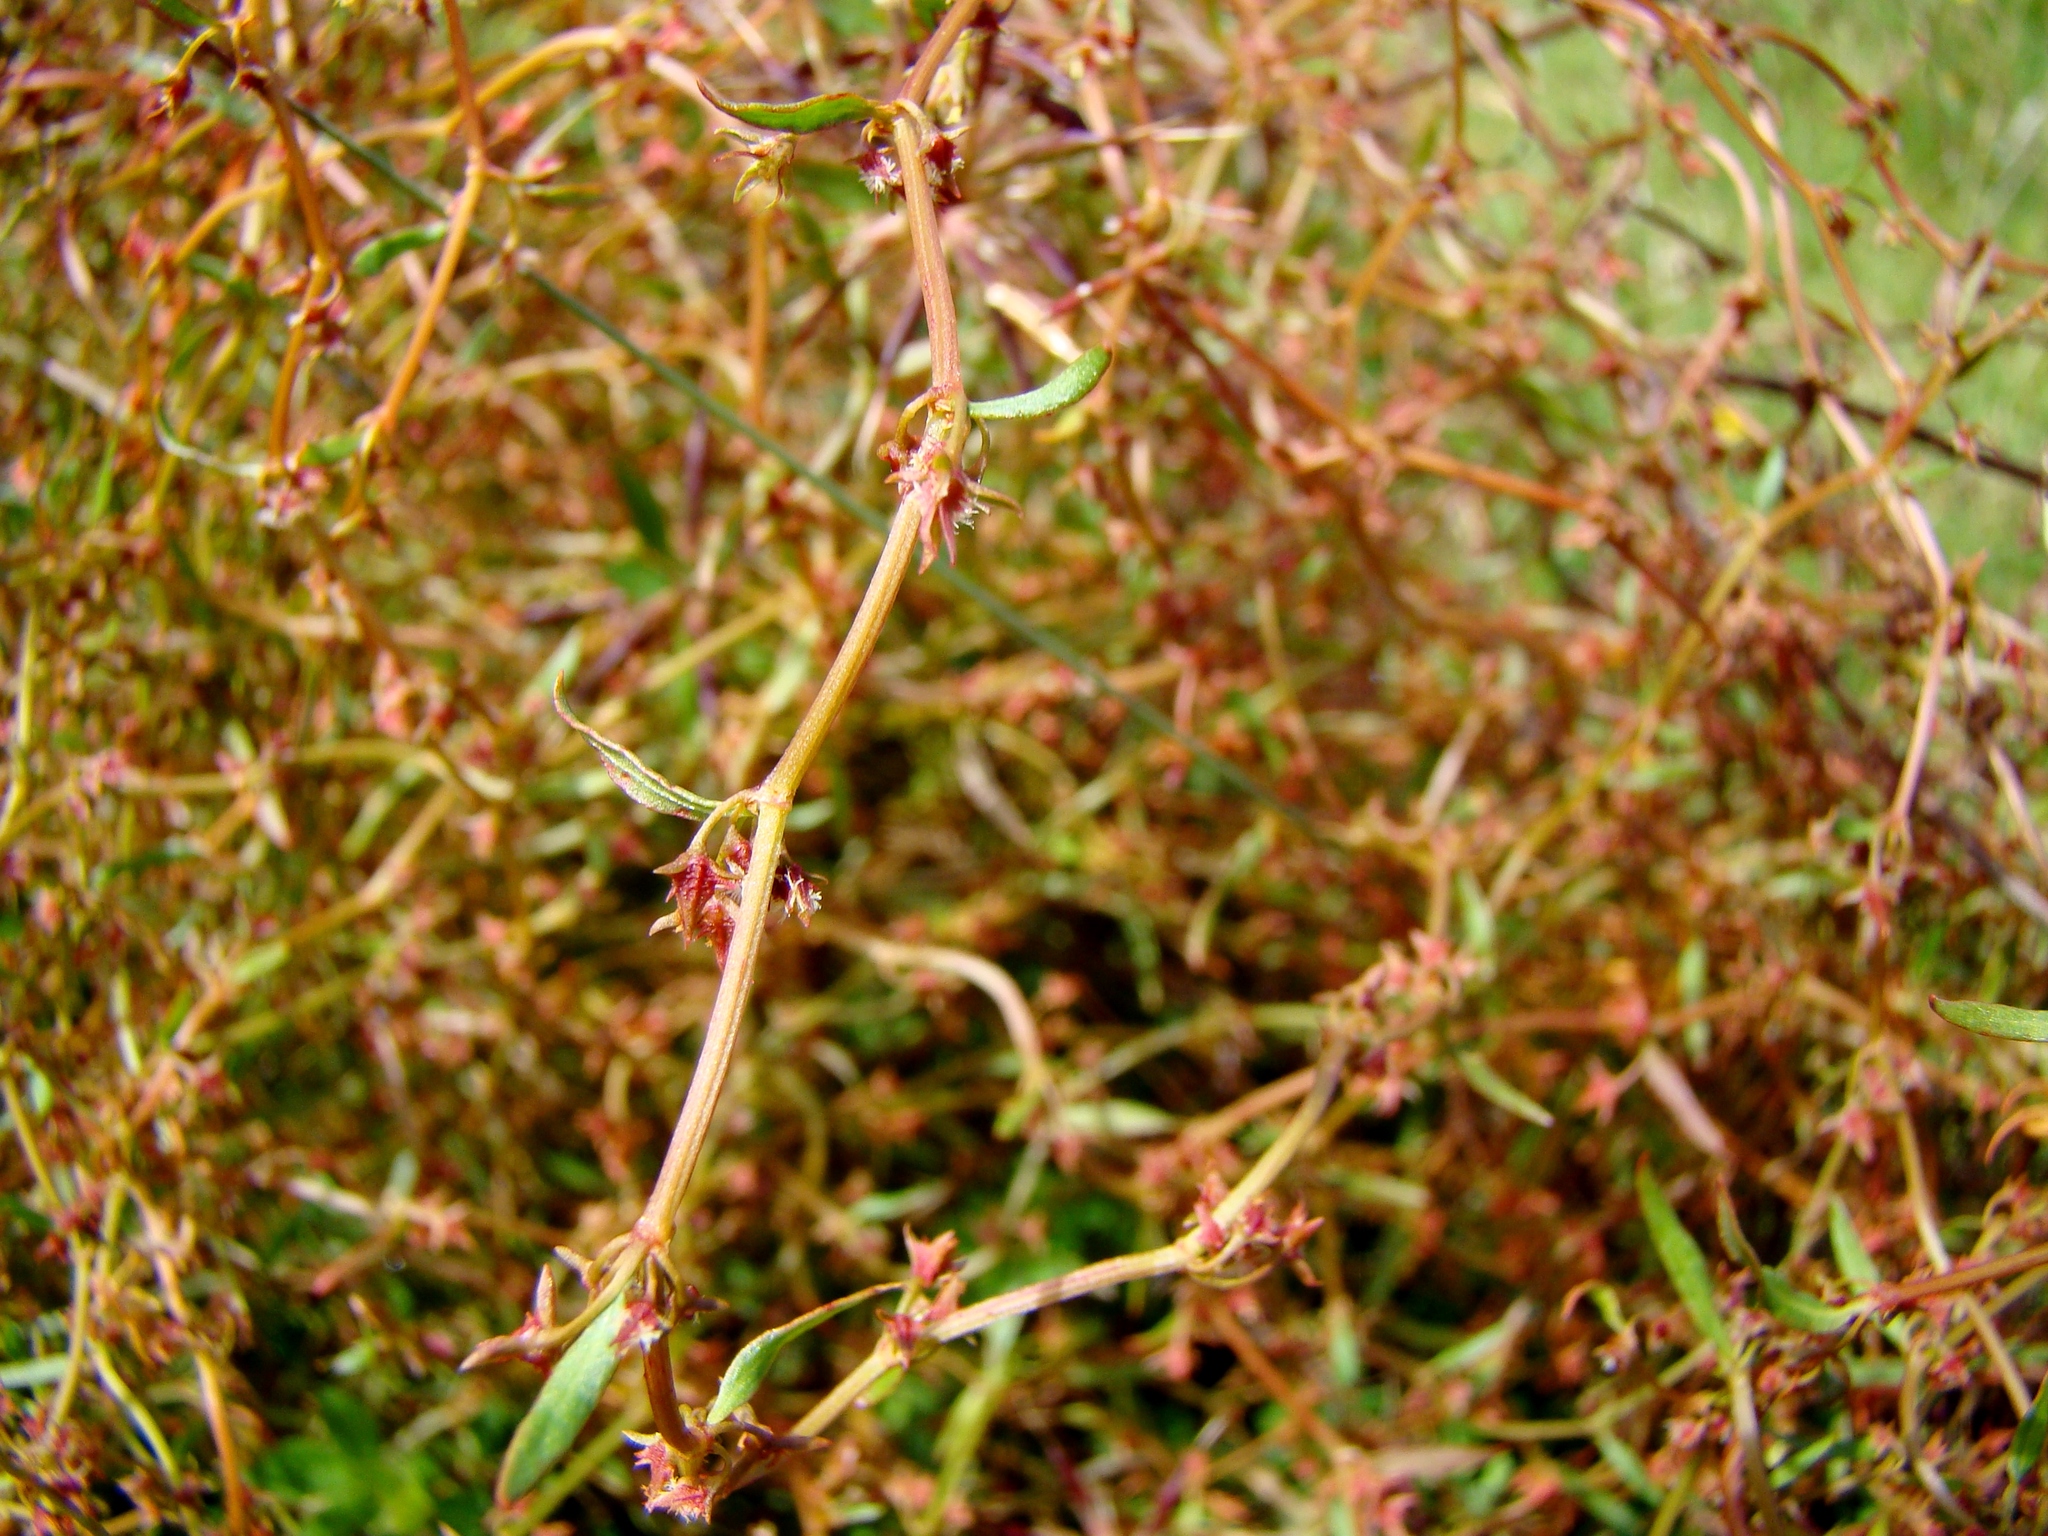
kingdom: Plantae
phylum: Tracheophyta
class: Magnoliopsida
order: Caryophyllales
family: Polygonaceae
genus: Rumex
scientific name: Rumex flexuosus
